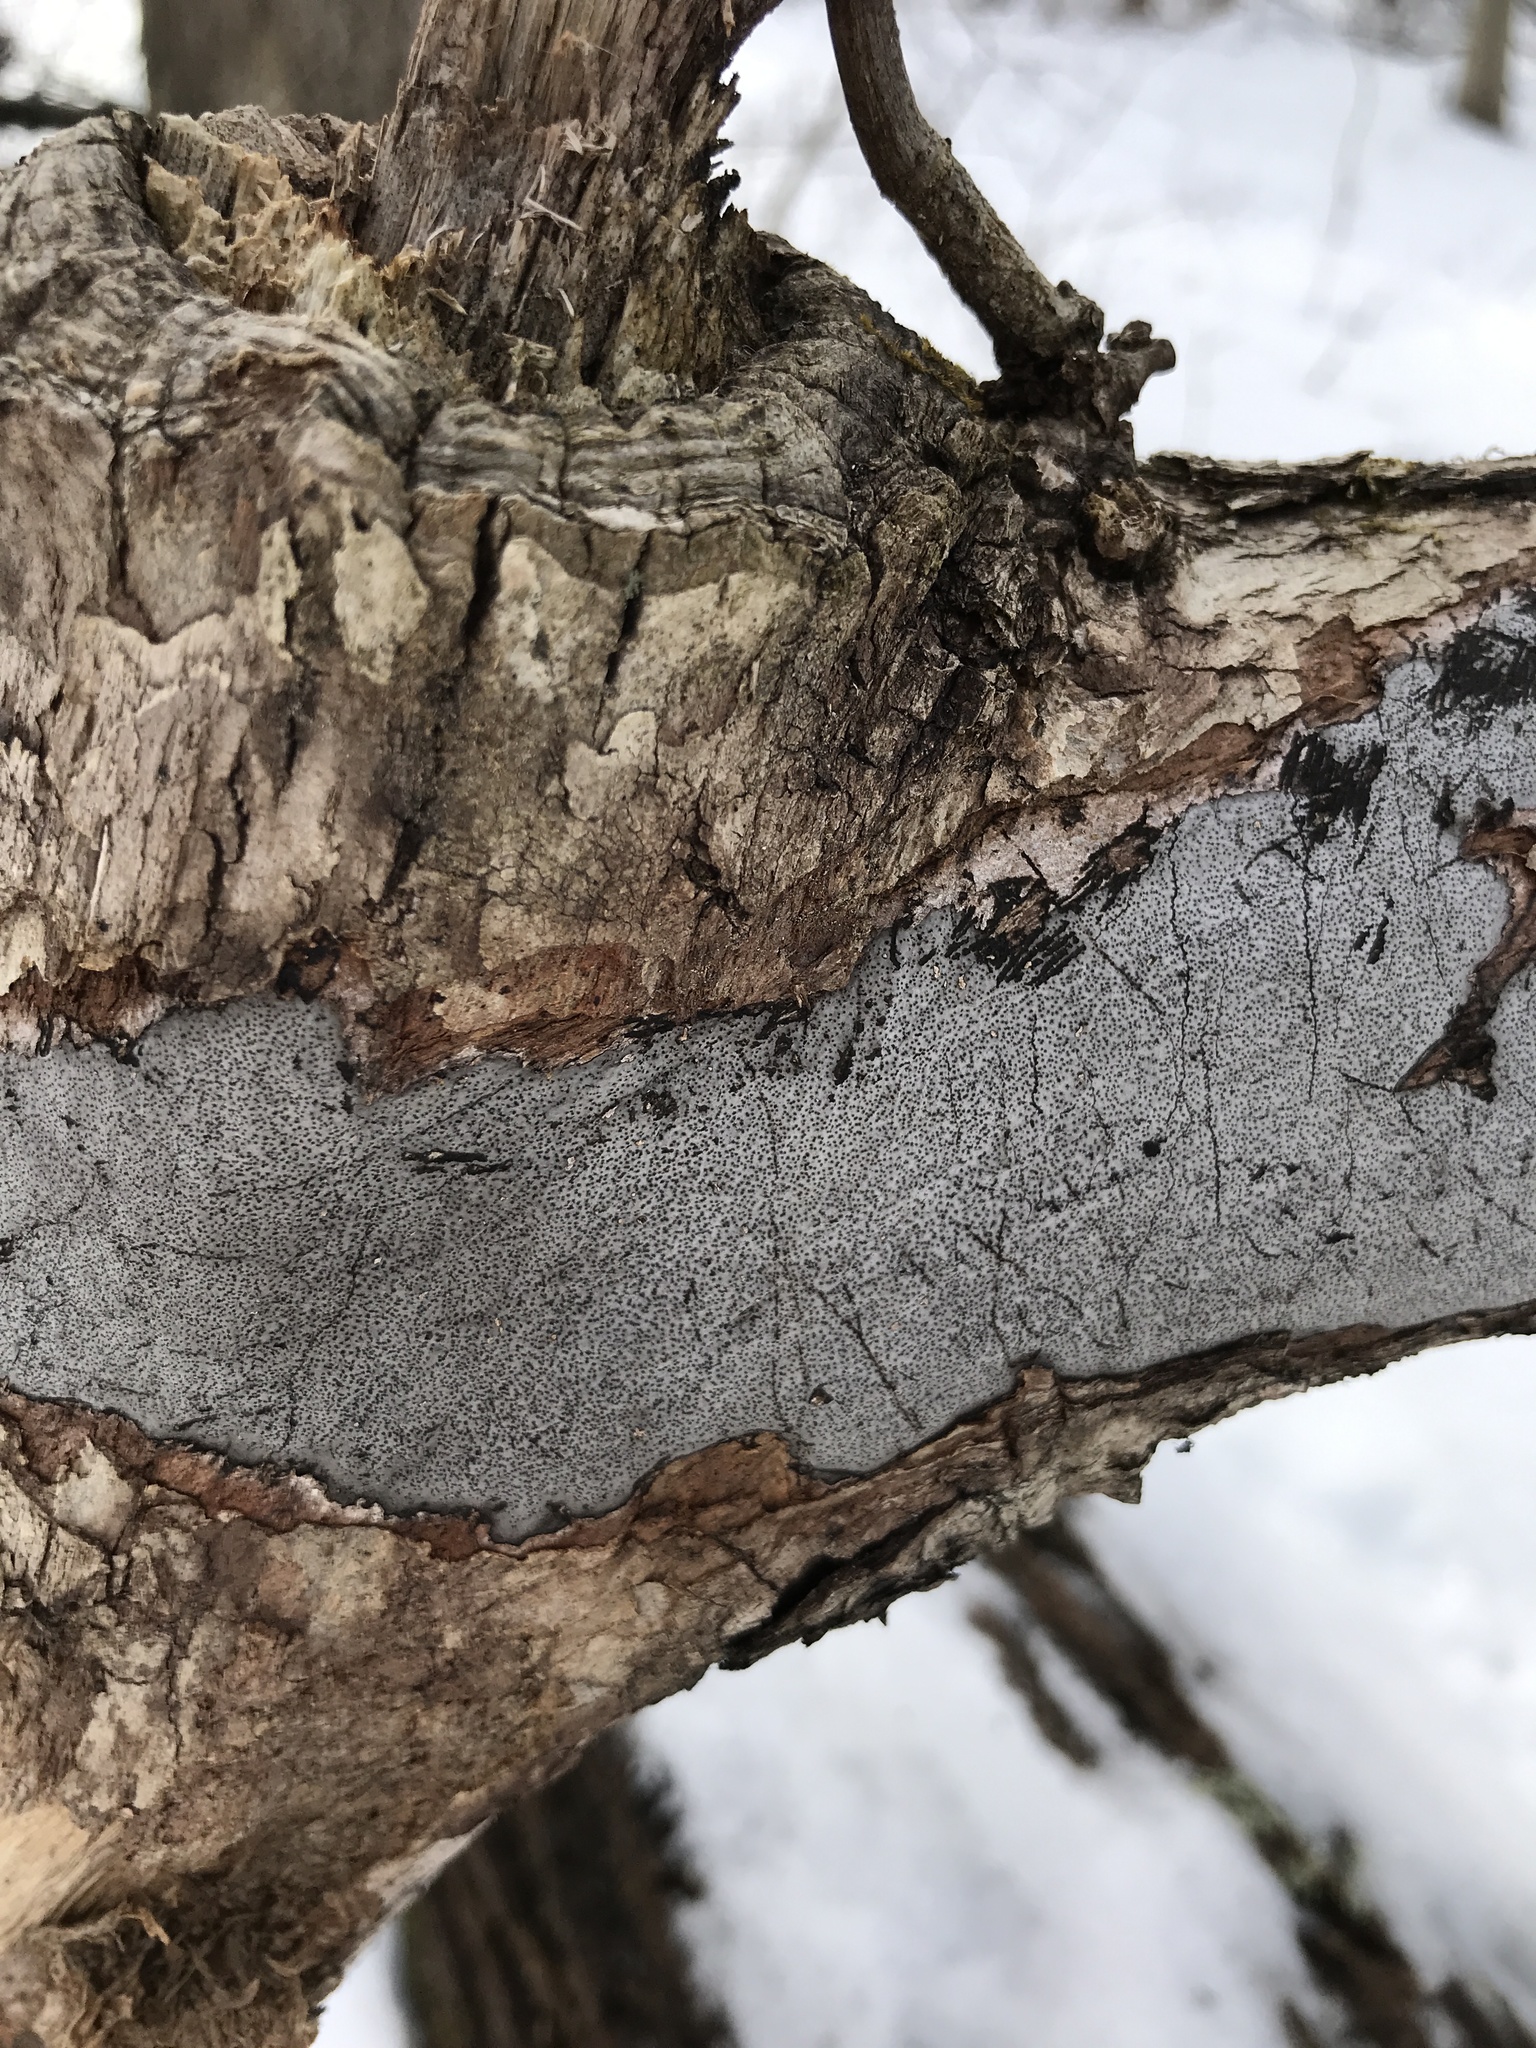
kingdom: Fungi
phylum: Ascomycota
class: Sordariomycetes
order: Xylariales
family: Graphostromataceae
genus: Biscogniauxia
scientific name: Biscogniauxia atropunctata
